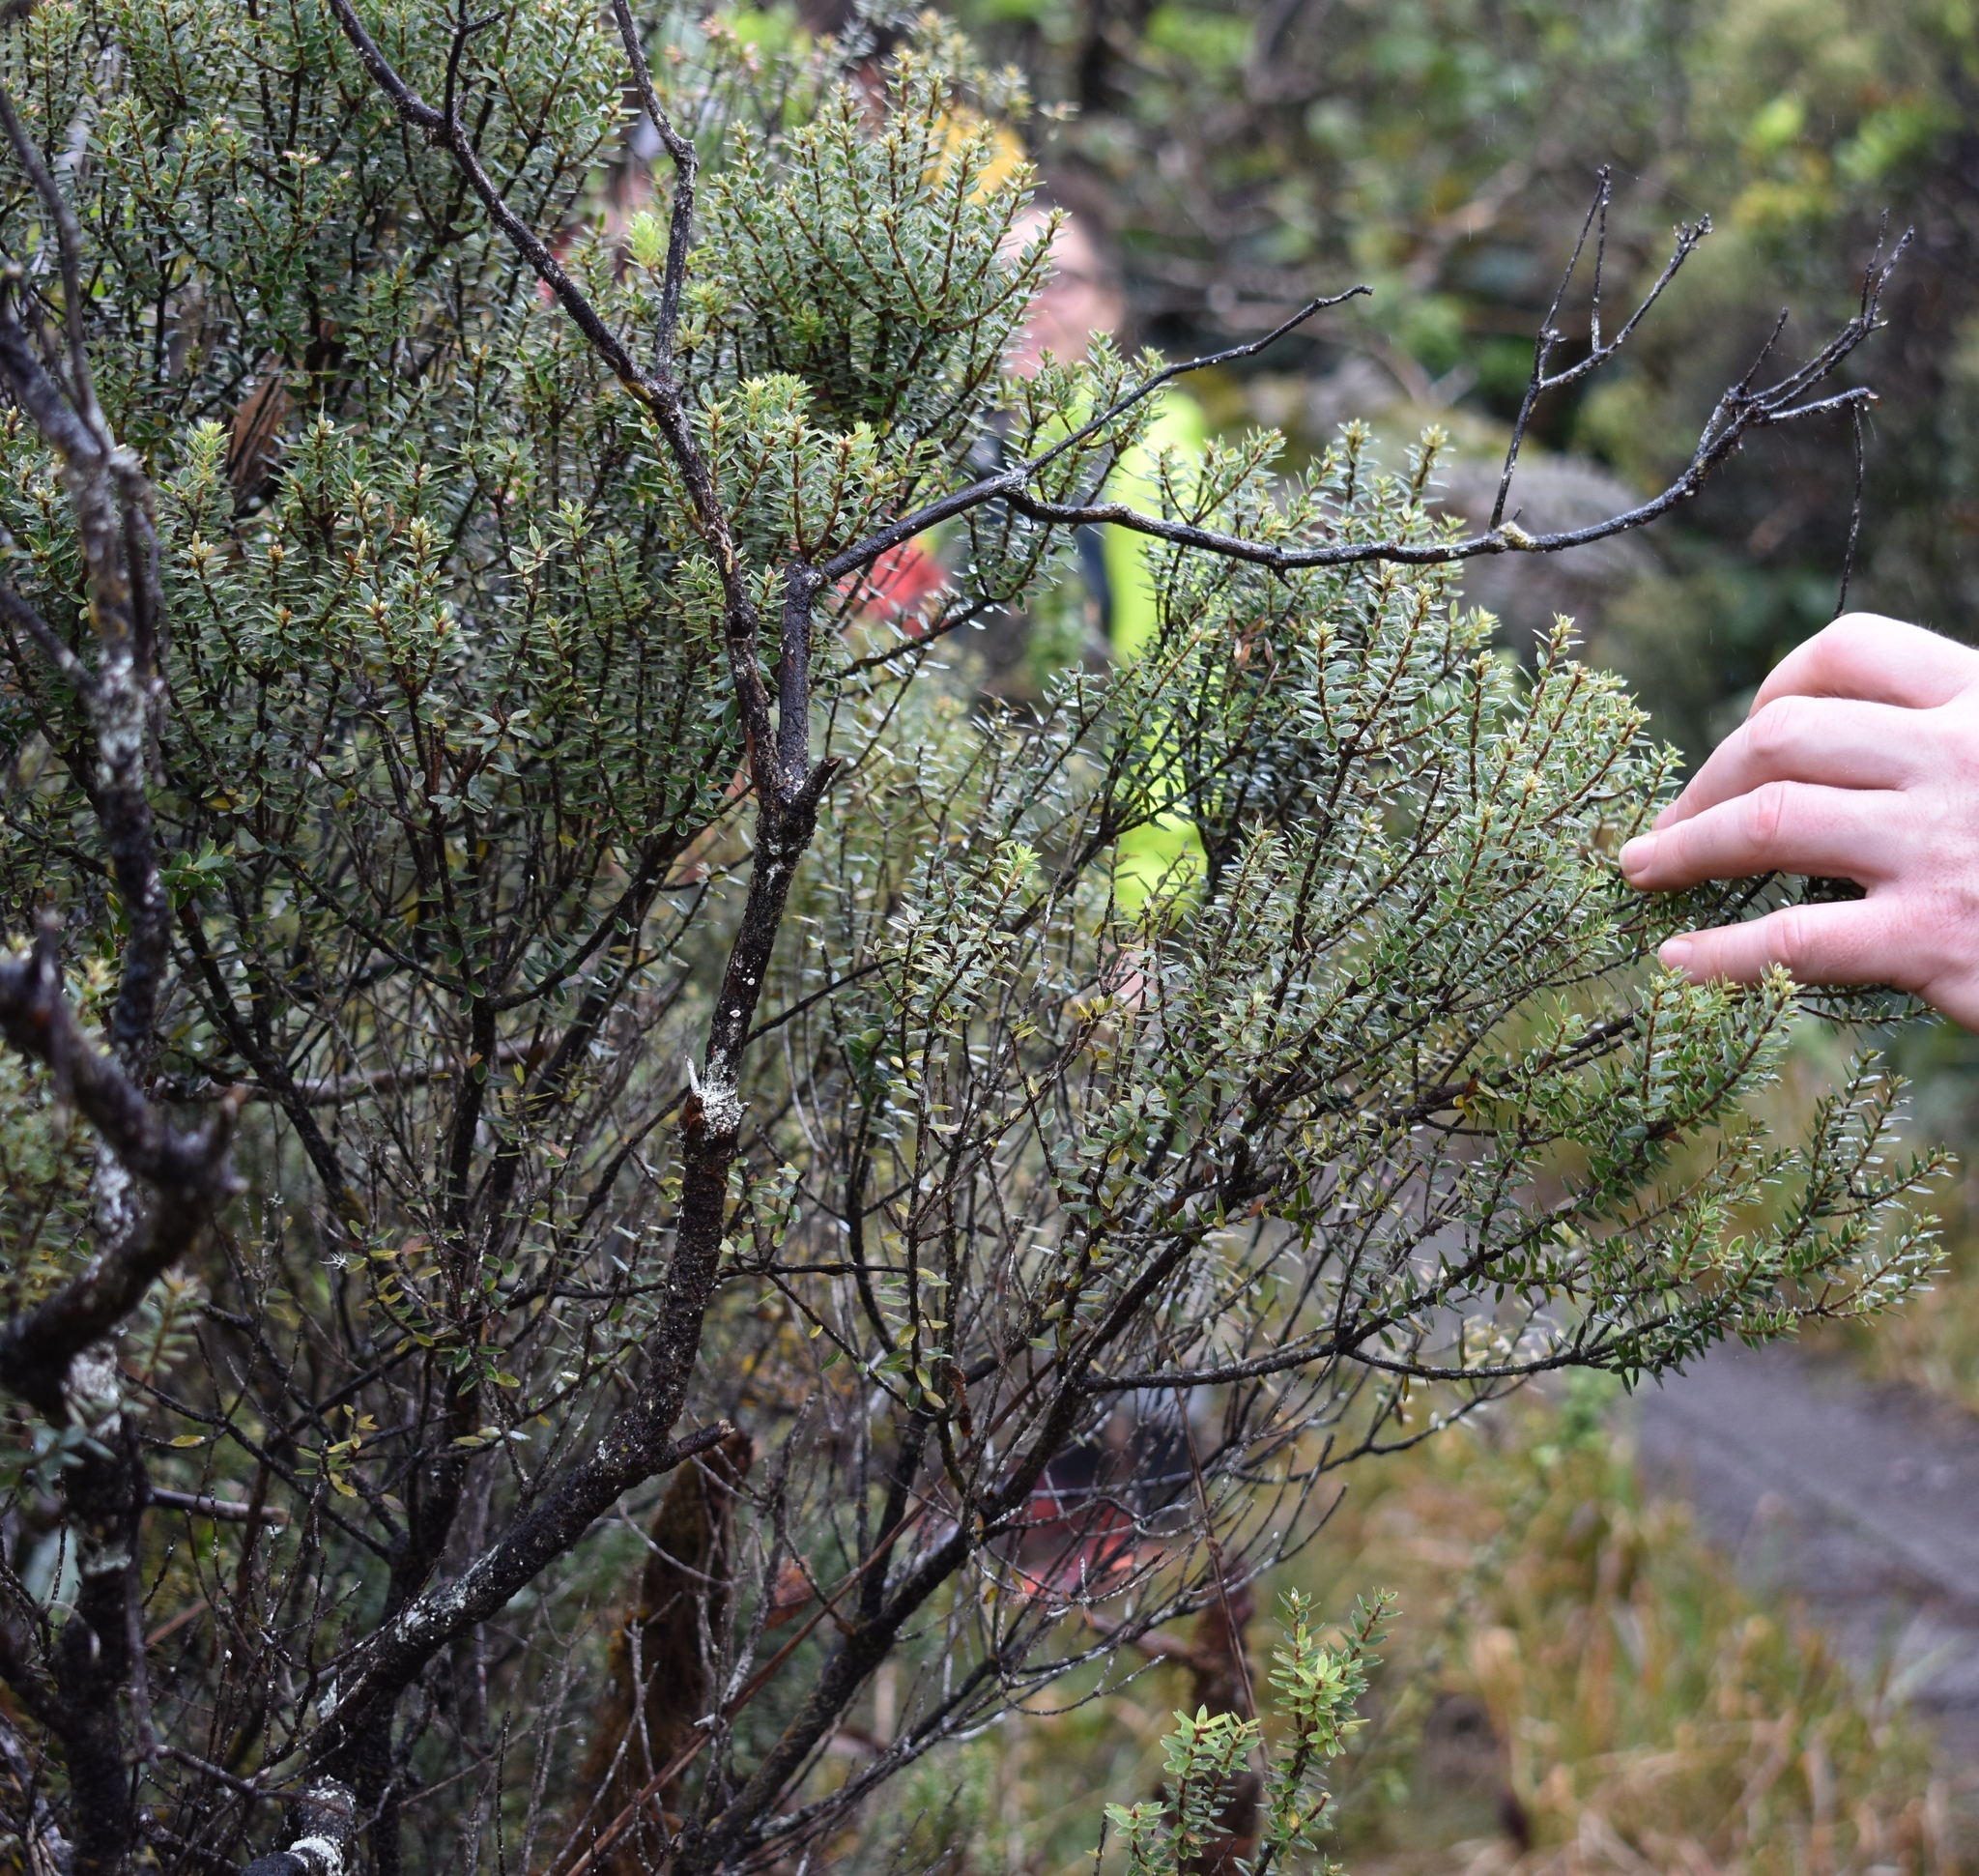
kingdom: Plantae
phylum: Tracheophyta
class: Magnoliopsida
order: Ericales
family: Ericaceae
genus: Leptecophylla
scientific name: Leptecophylla tameiameiae
